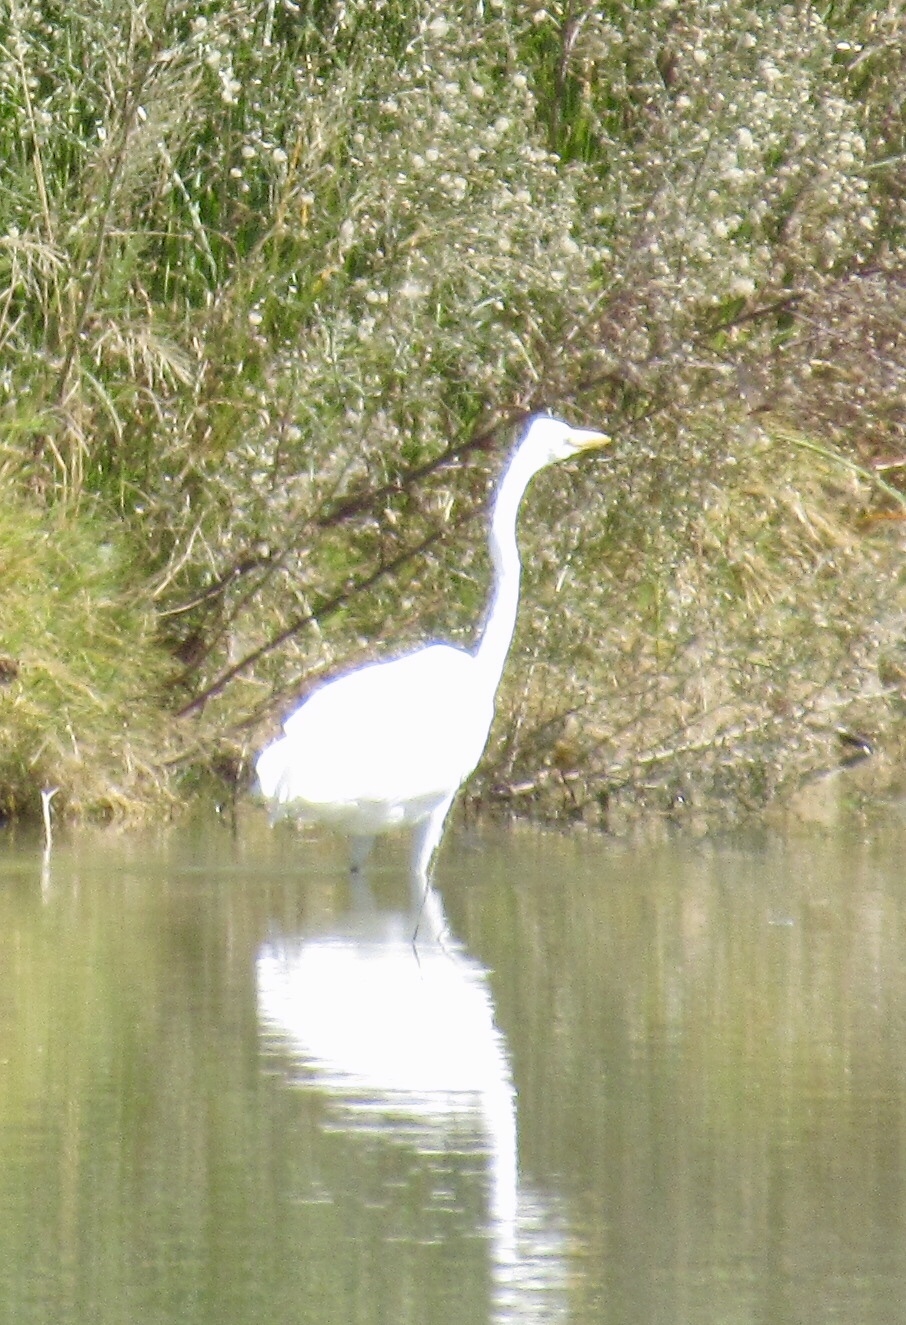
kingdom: Animalia
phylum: Chordata
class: Aves
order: Pelecaniformes
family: Ardeidae
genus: Ardea
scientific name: Ardea alba
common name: Great egret
